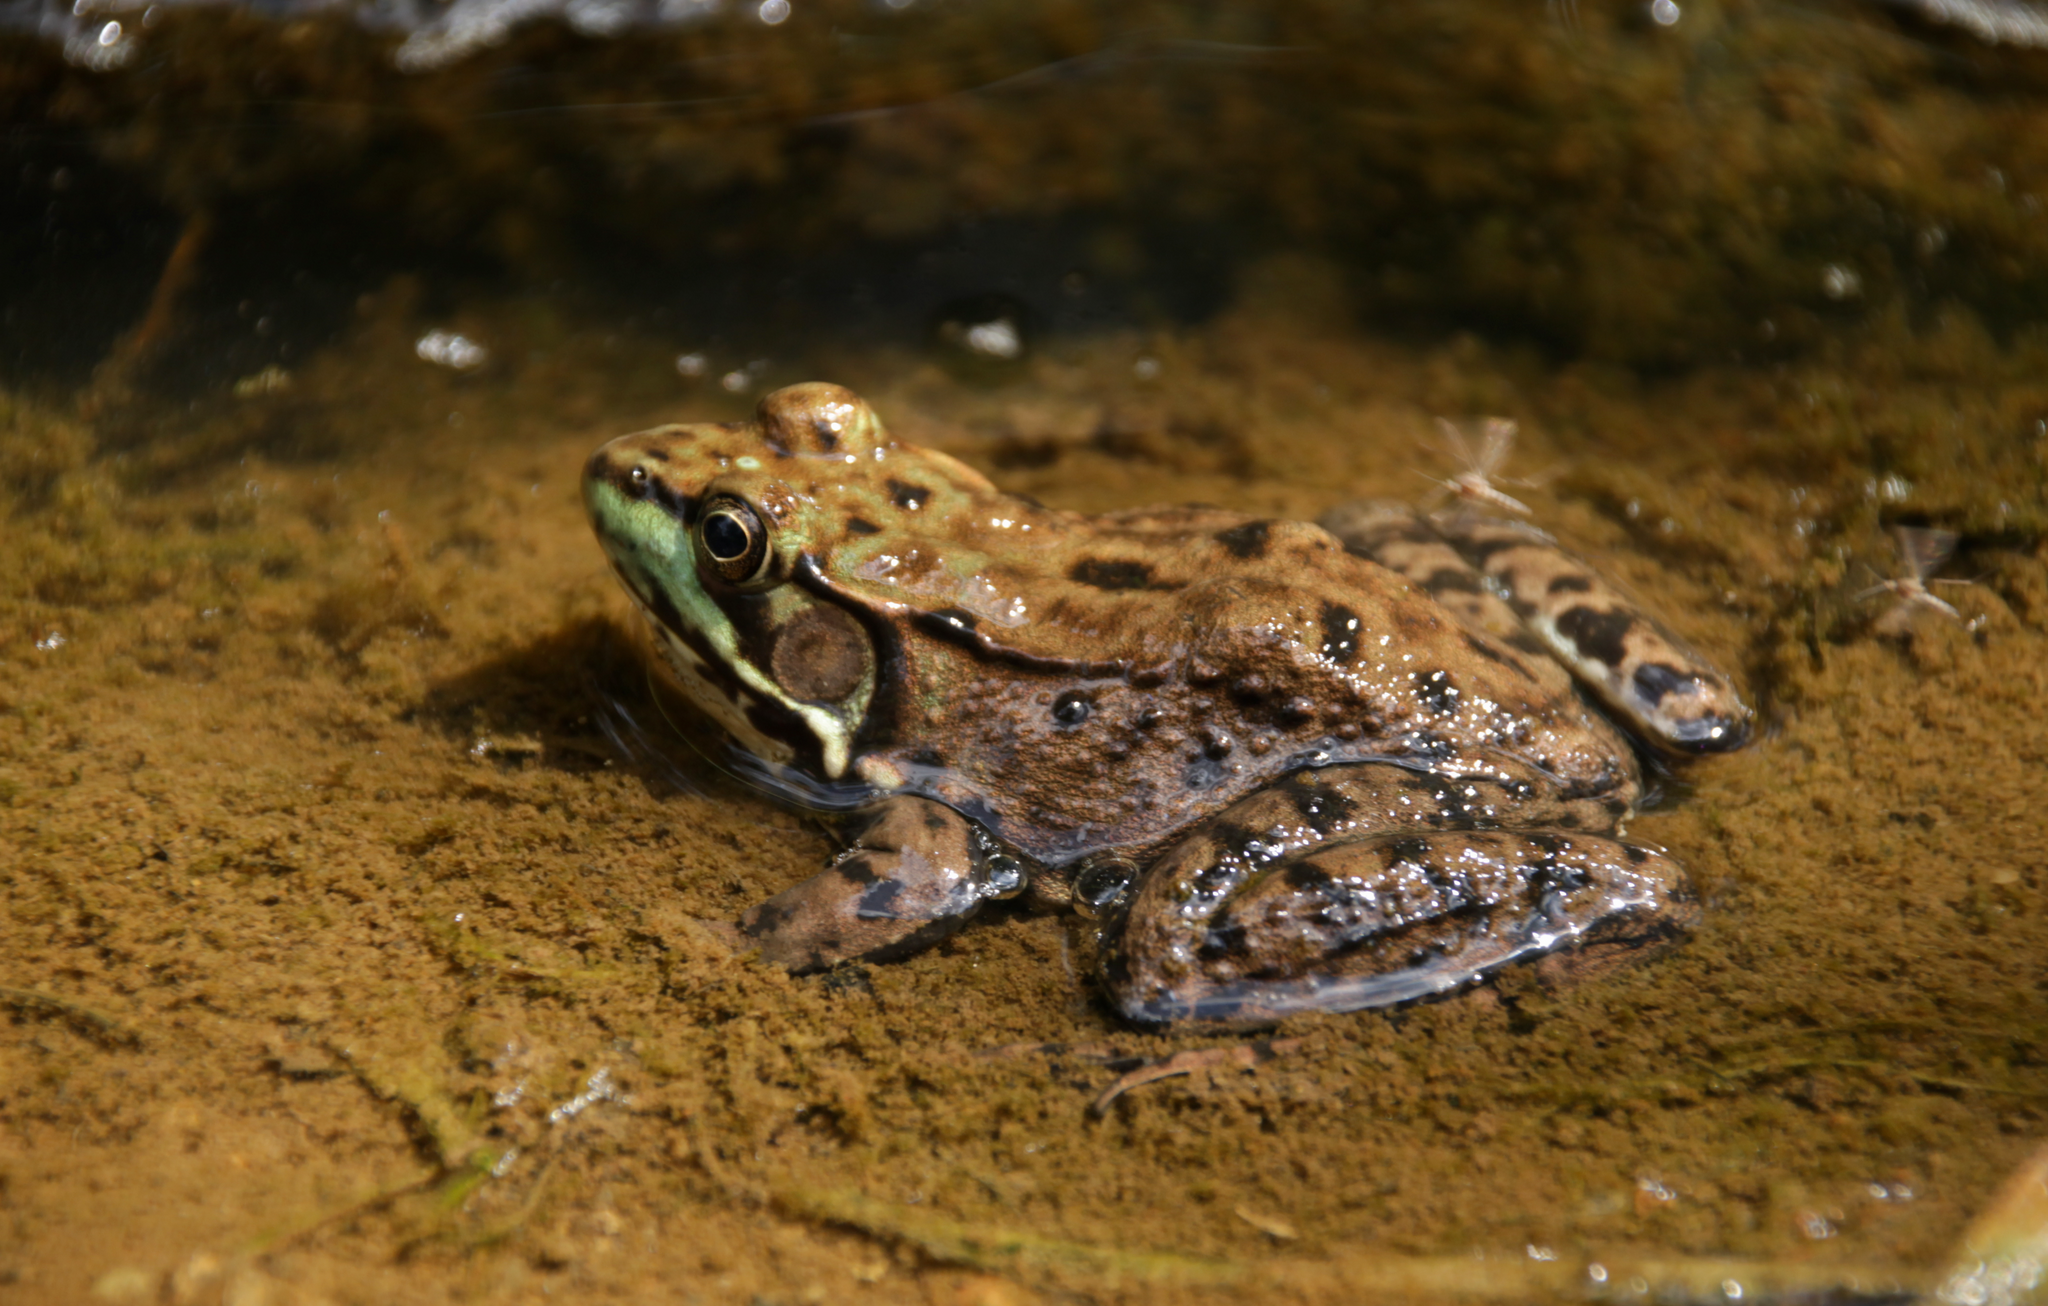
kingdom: Animalia
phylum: Chordata
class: Amphibia
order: Anura
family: Ranidae
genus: Lithobates
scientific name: Lithobates clamitans
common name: Green frog
